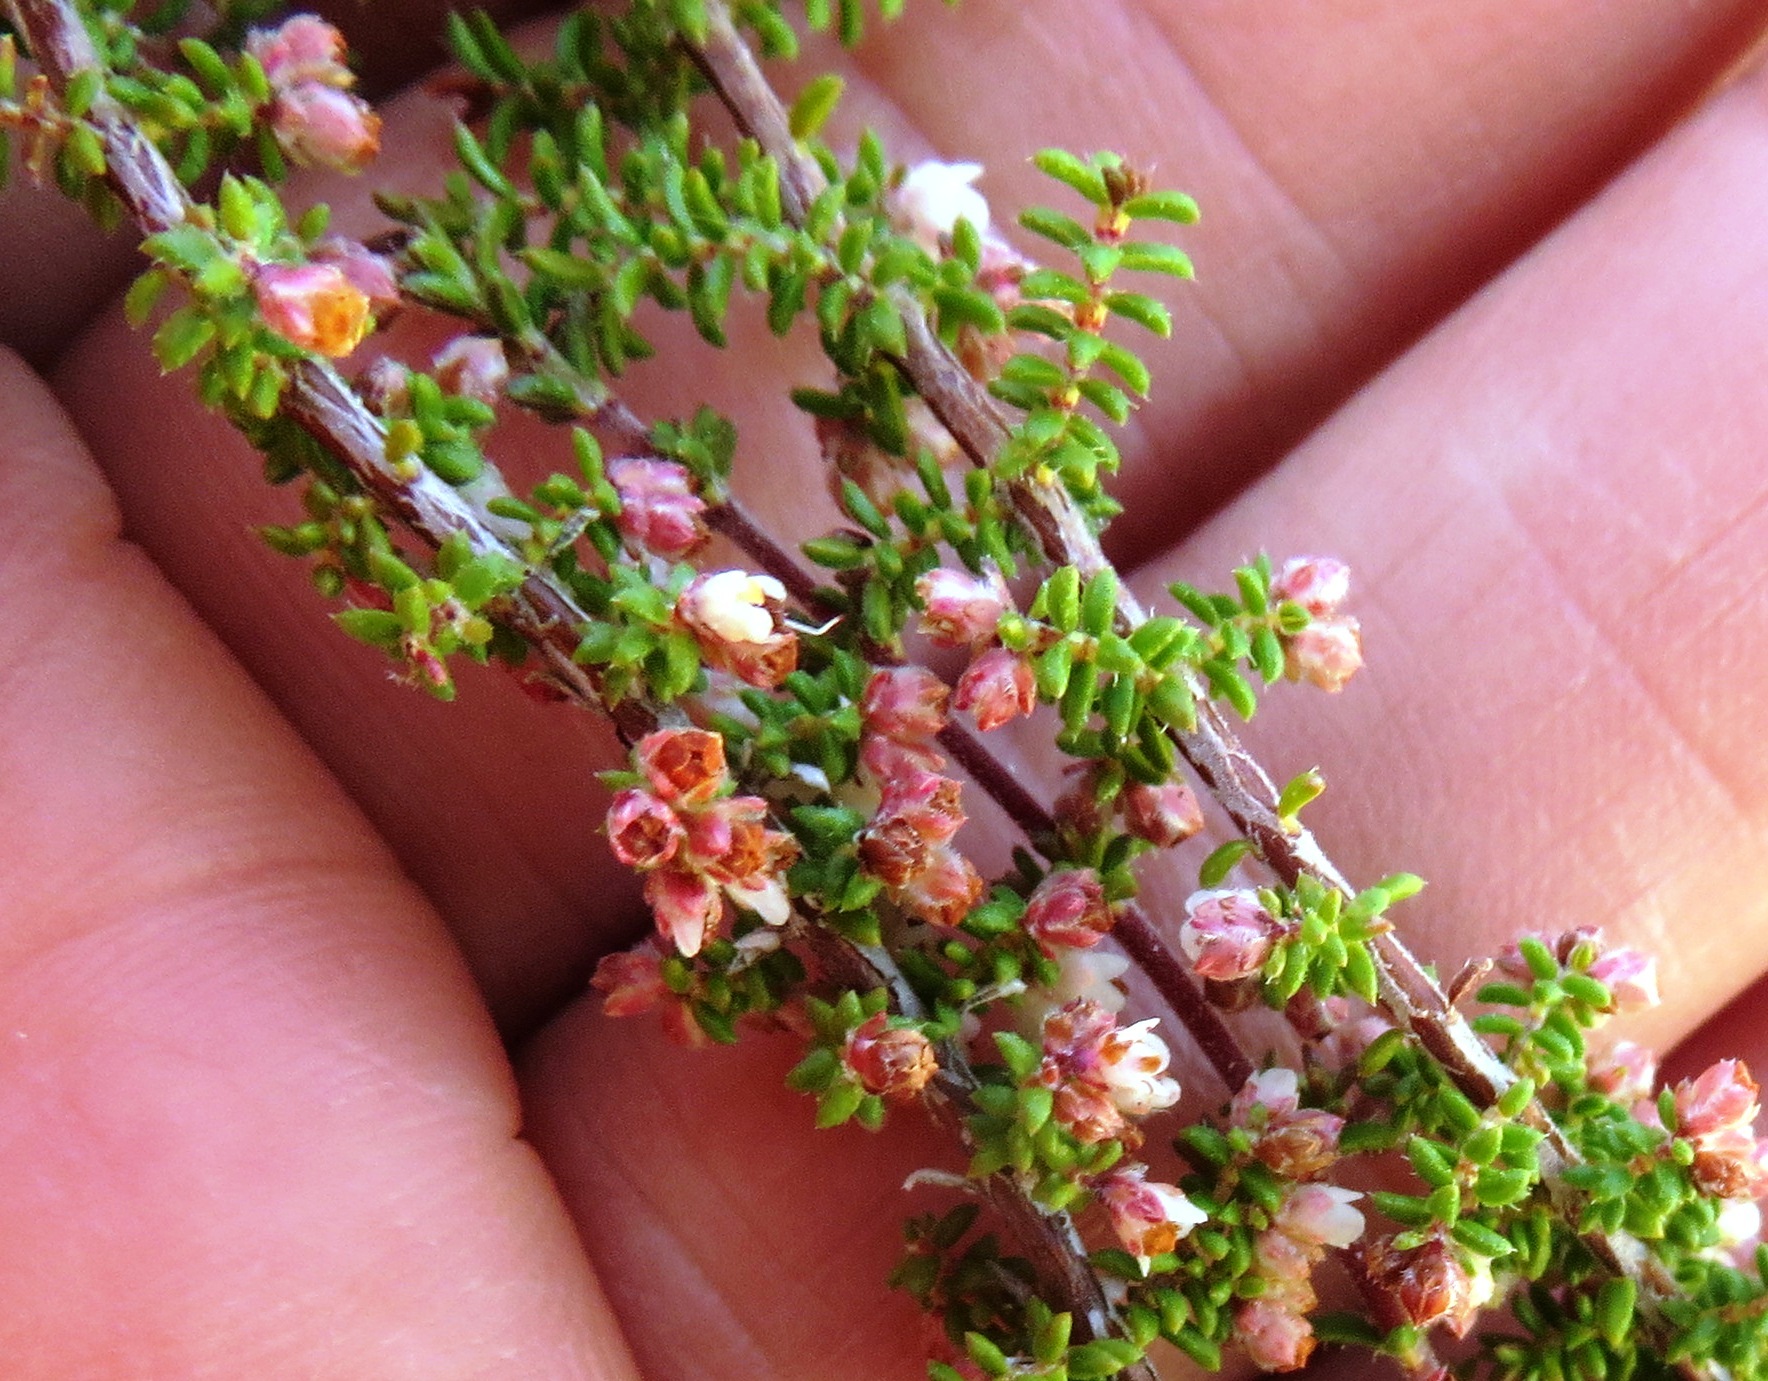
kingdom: Plantae
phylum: Tracheophyta
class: Magnoliopsida
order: Ericales
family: Ericaceae
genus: Erica
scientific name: Erica totta
